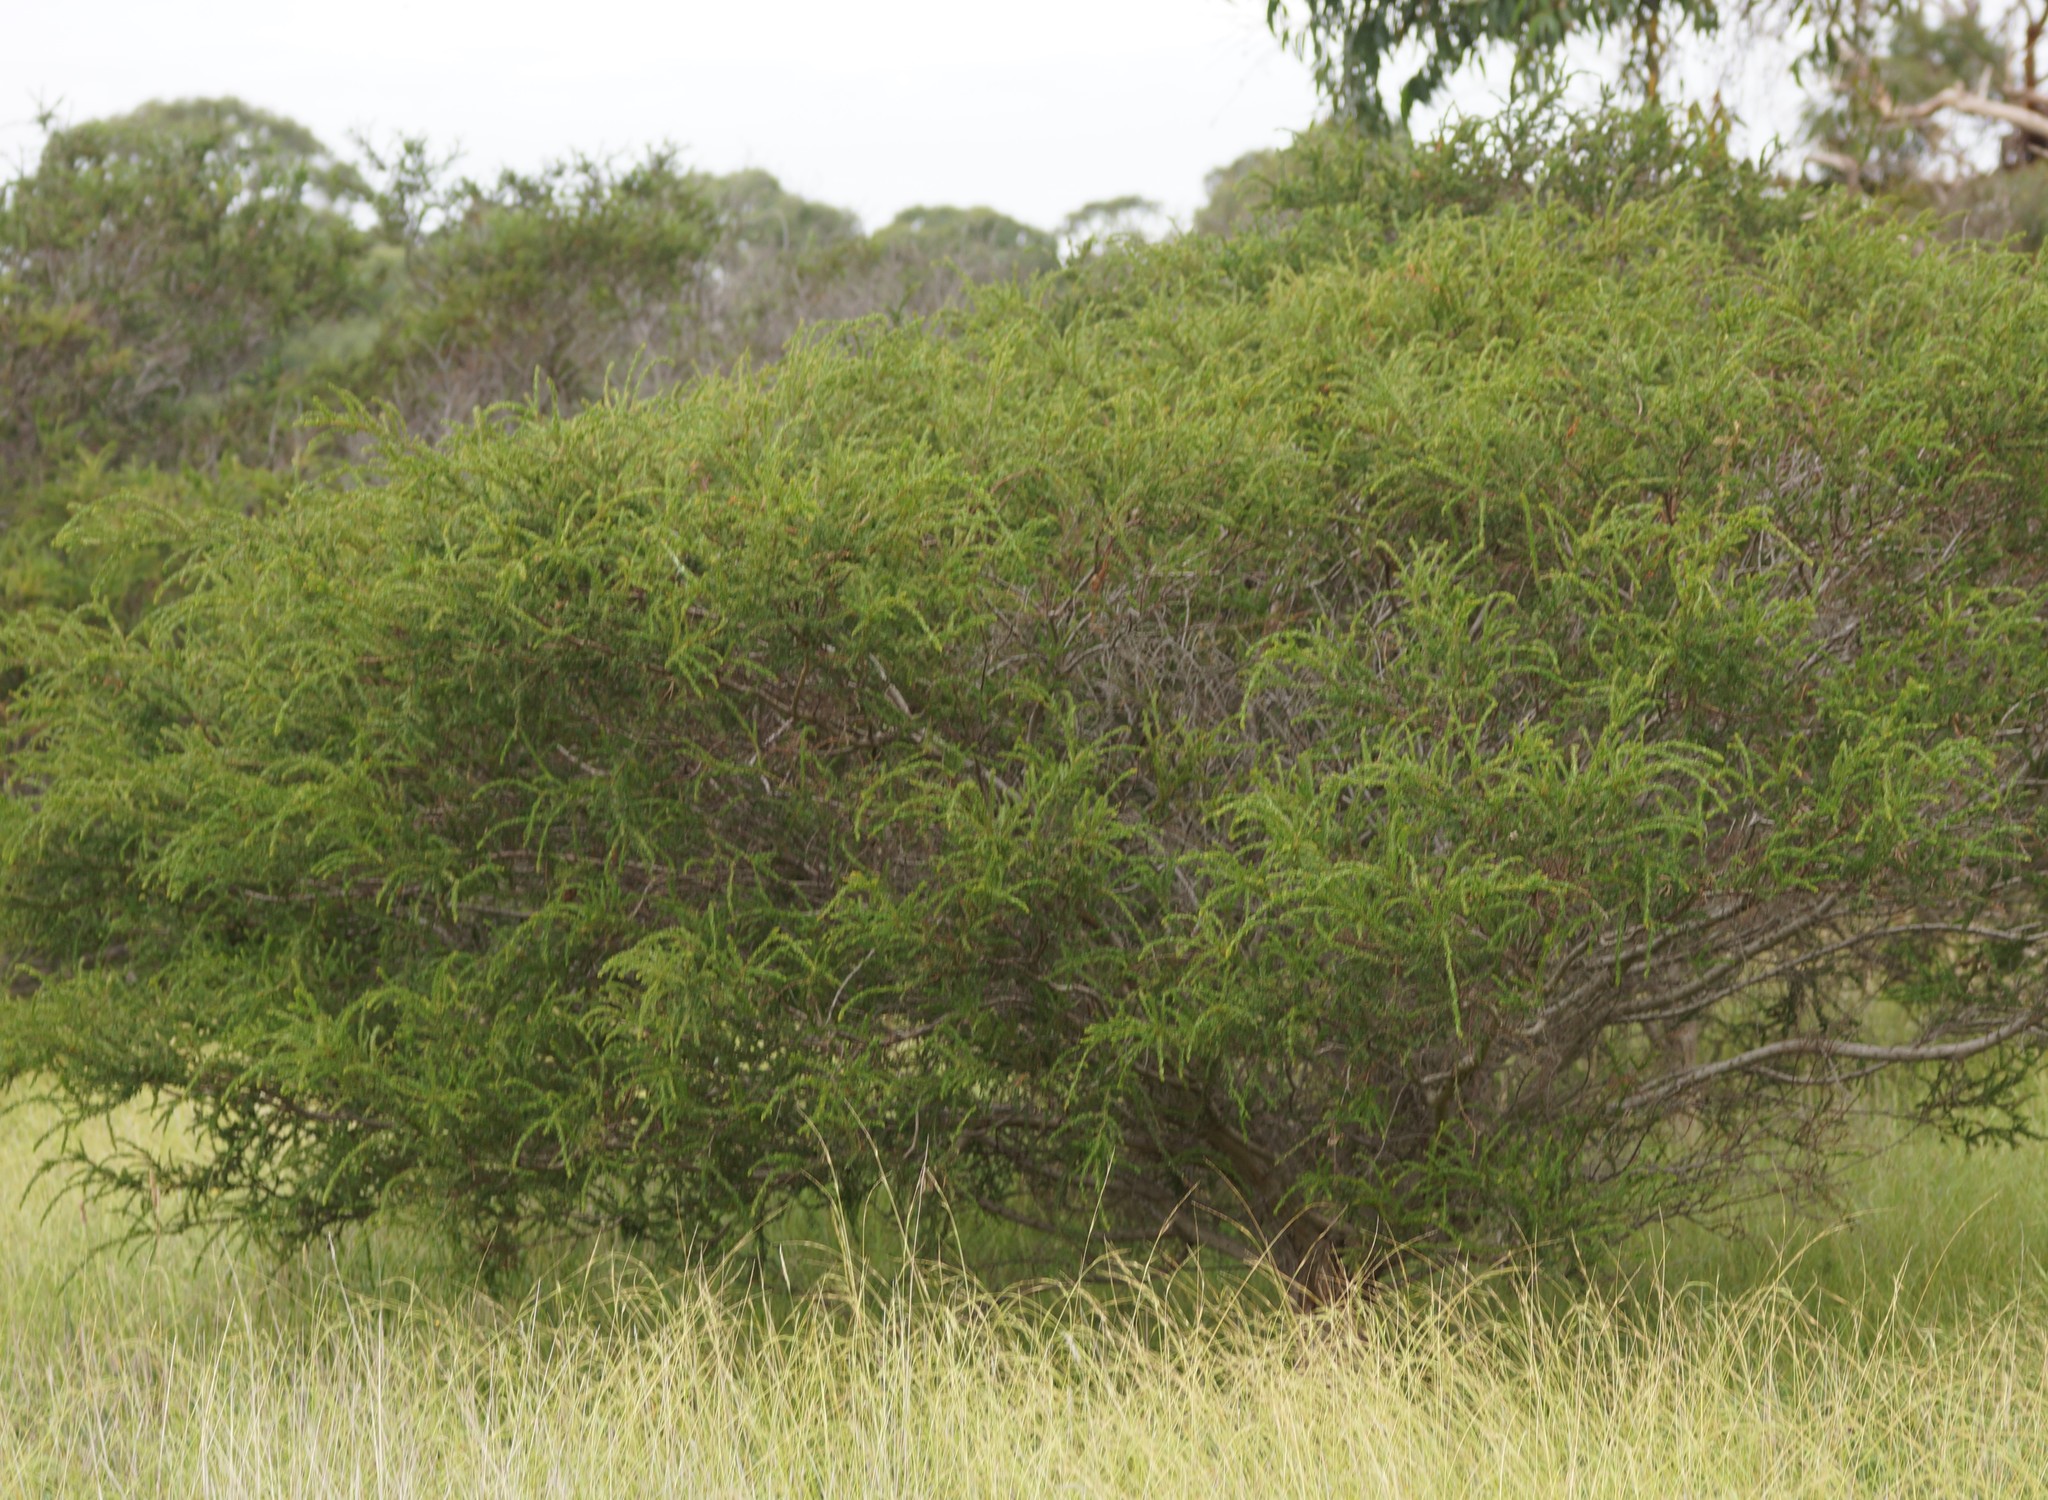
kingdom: Plantae
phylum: Tracheophyta
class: Magnoliopsida
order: Fabales
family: Fabaceae
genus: Acacia
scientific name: Acacia paradoxa
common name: Paradox acacia
